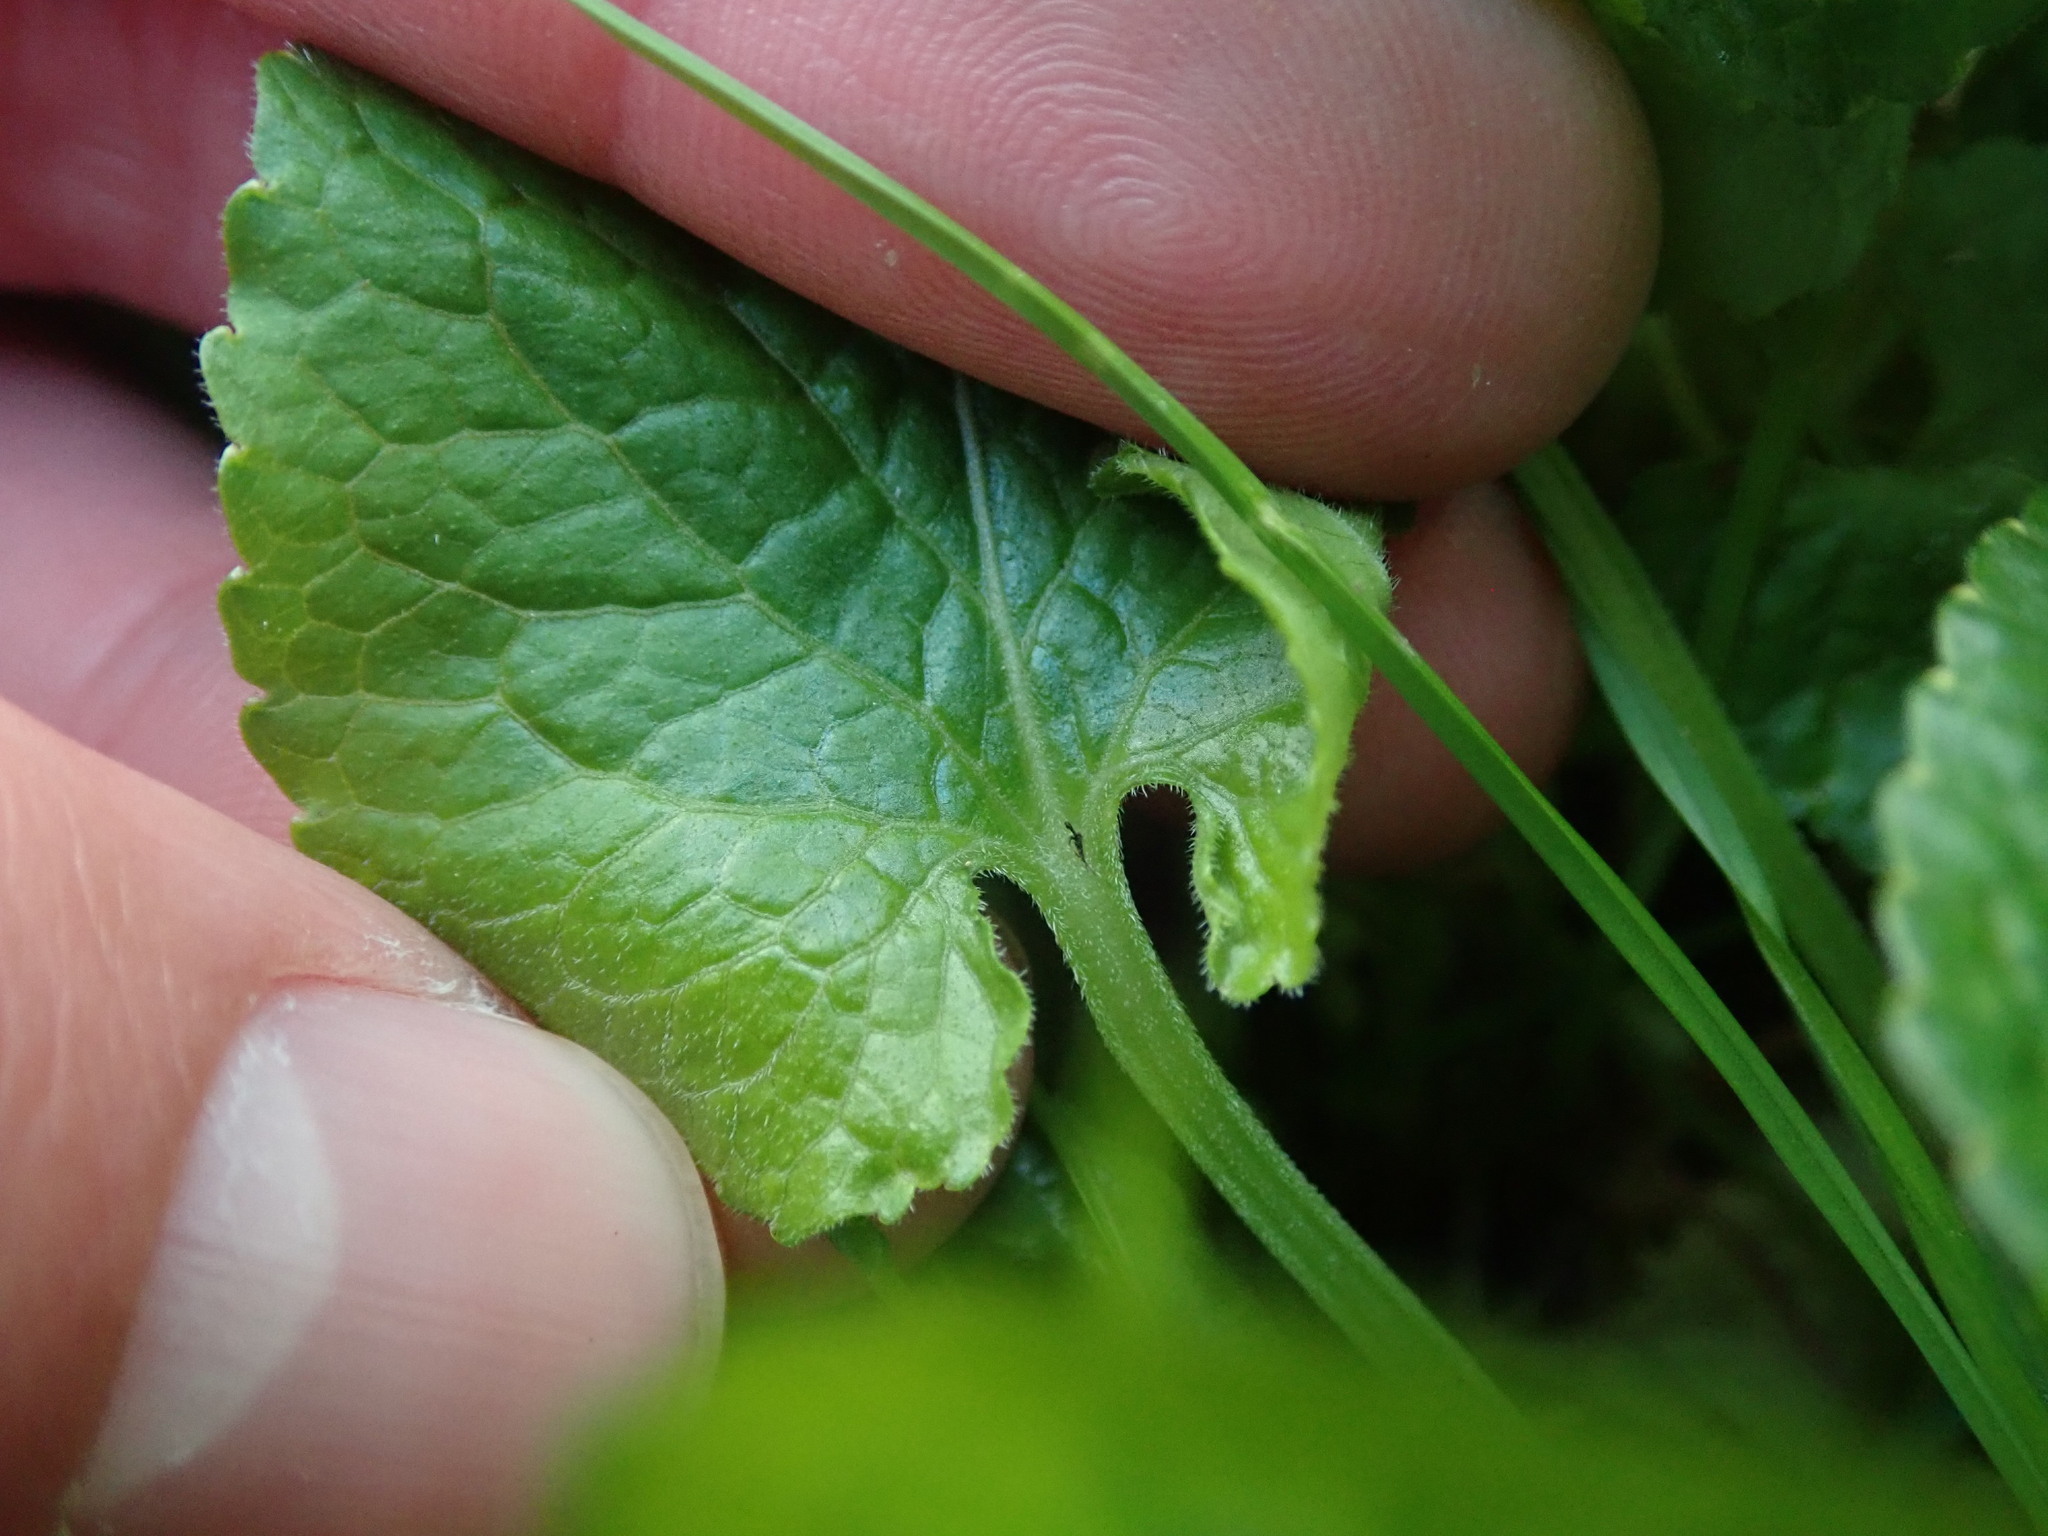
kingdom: Plantae
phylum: Tracheophyta
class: Magnoliopsida
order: Malpighiales
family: Violaceae
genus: Viola
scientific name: Viola odorata
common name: Sweet violet
